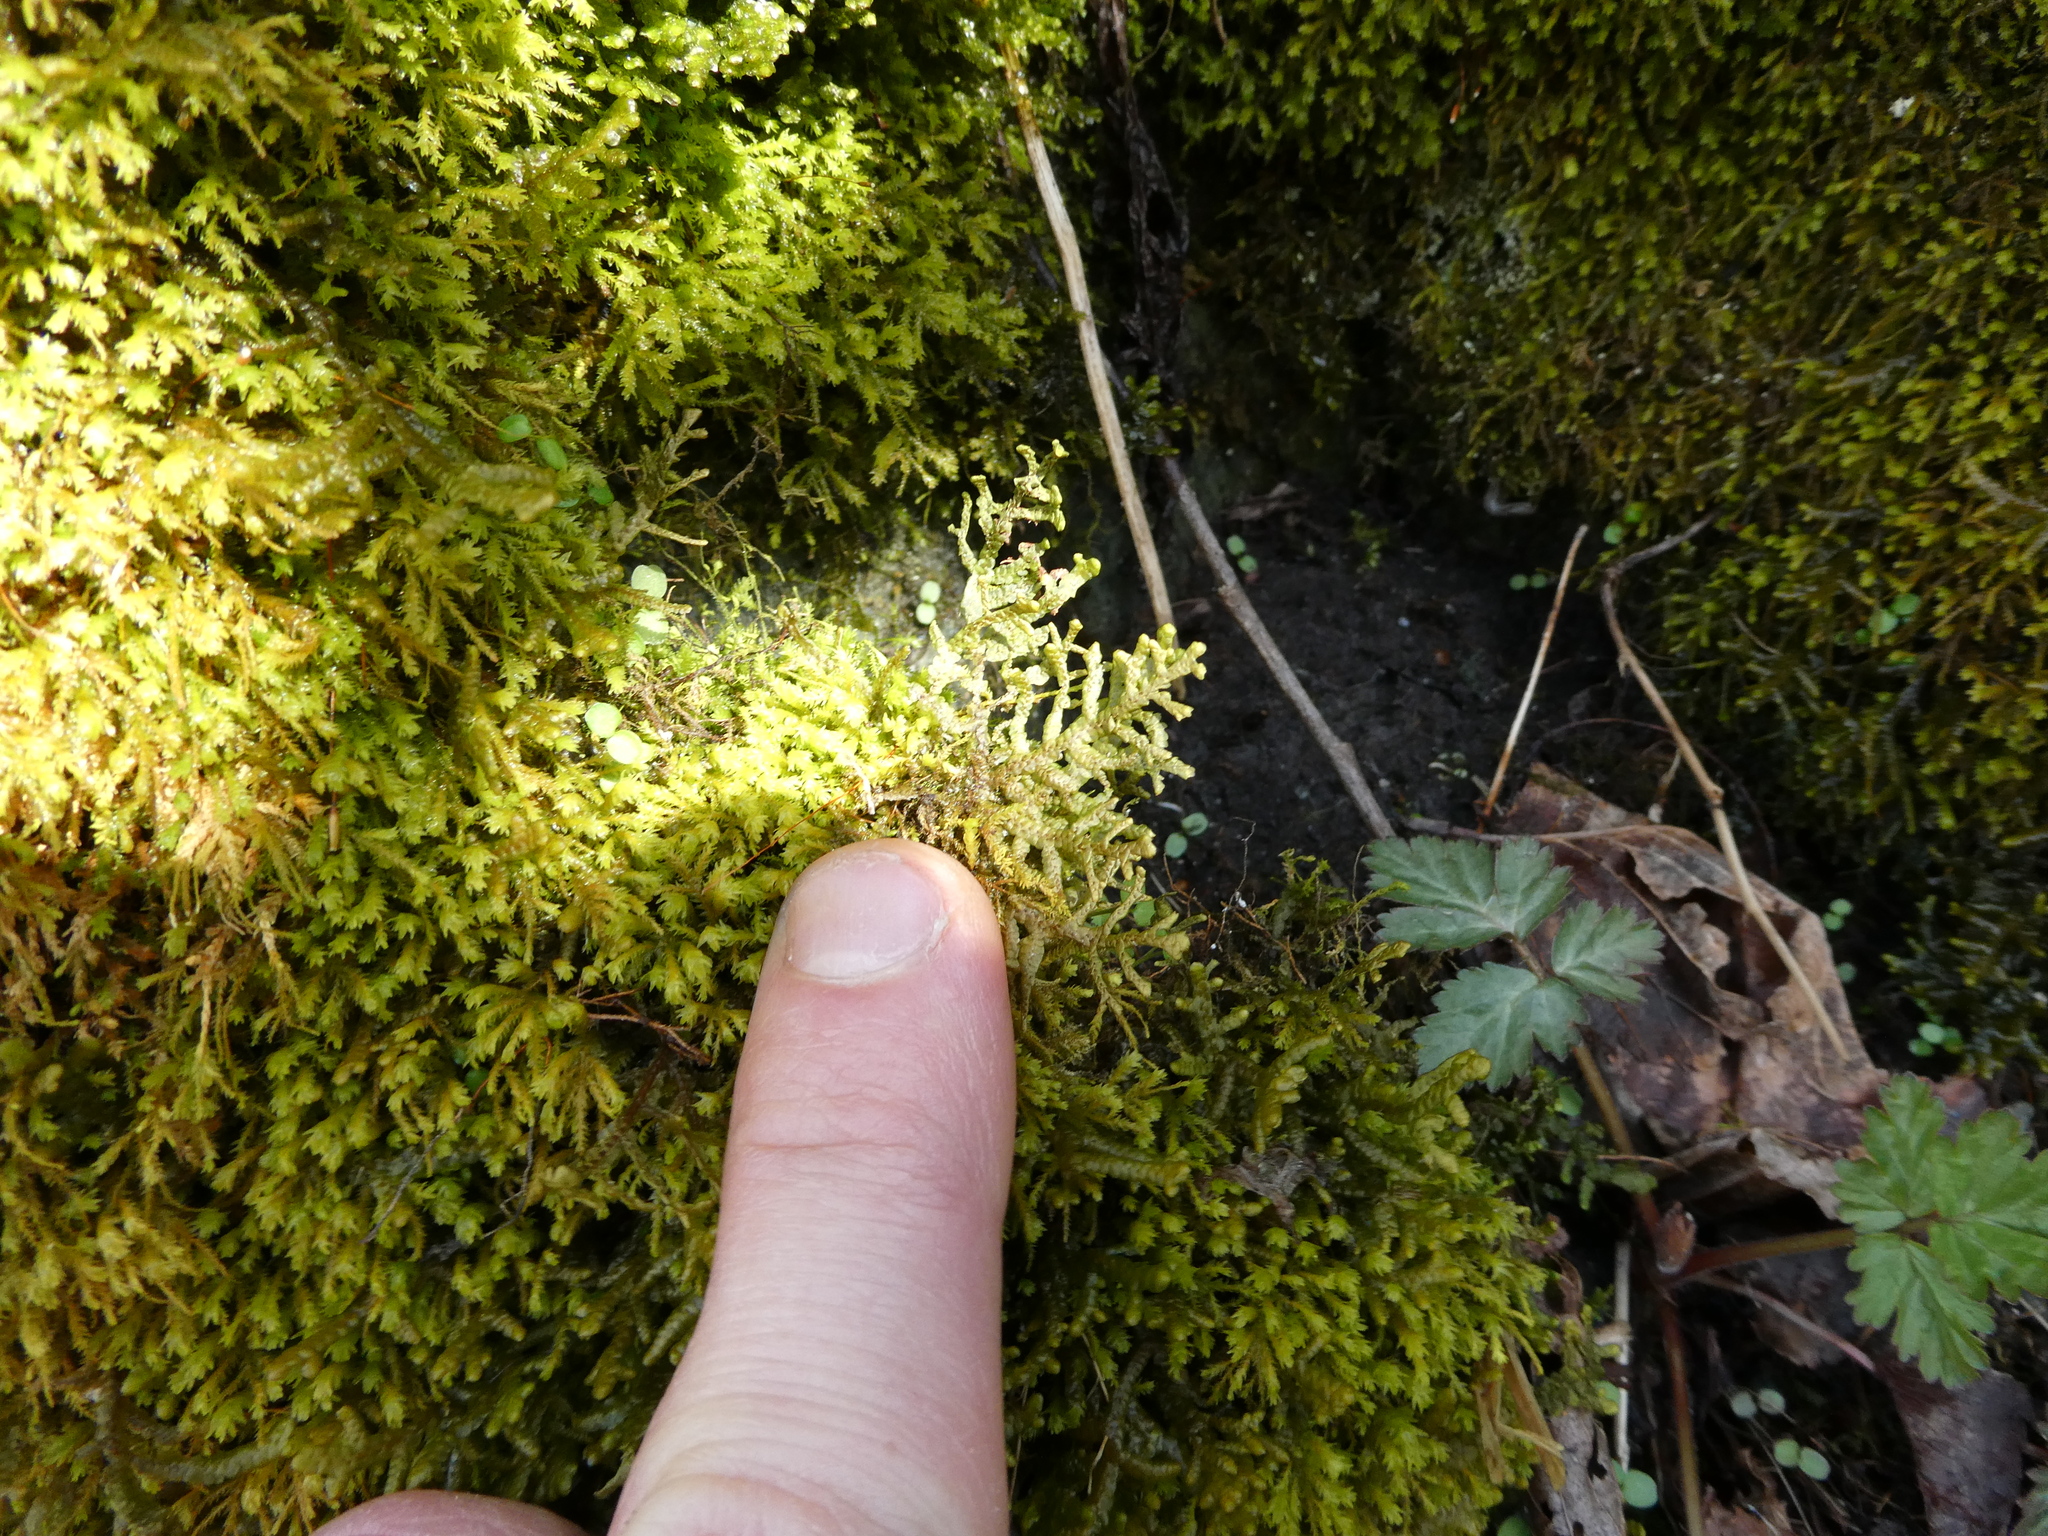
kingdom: Plantae
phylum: Marchantiophyta
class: Jungermanniopsida
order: Porellales
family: Porellaceae
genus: Porella
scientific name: Porella platyphylla
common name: Wall scalewort
